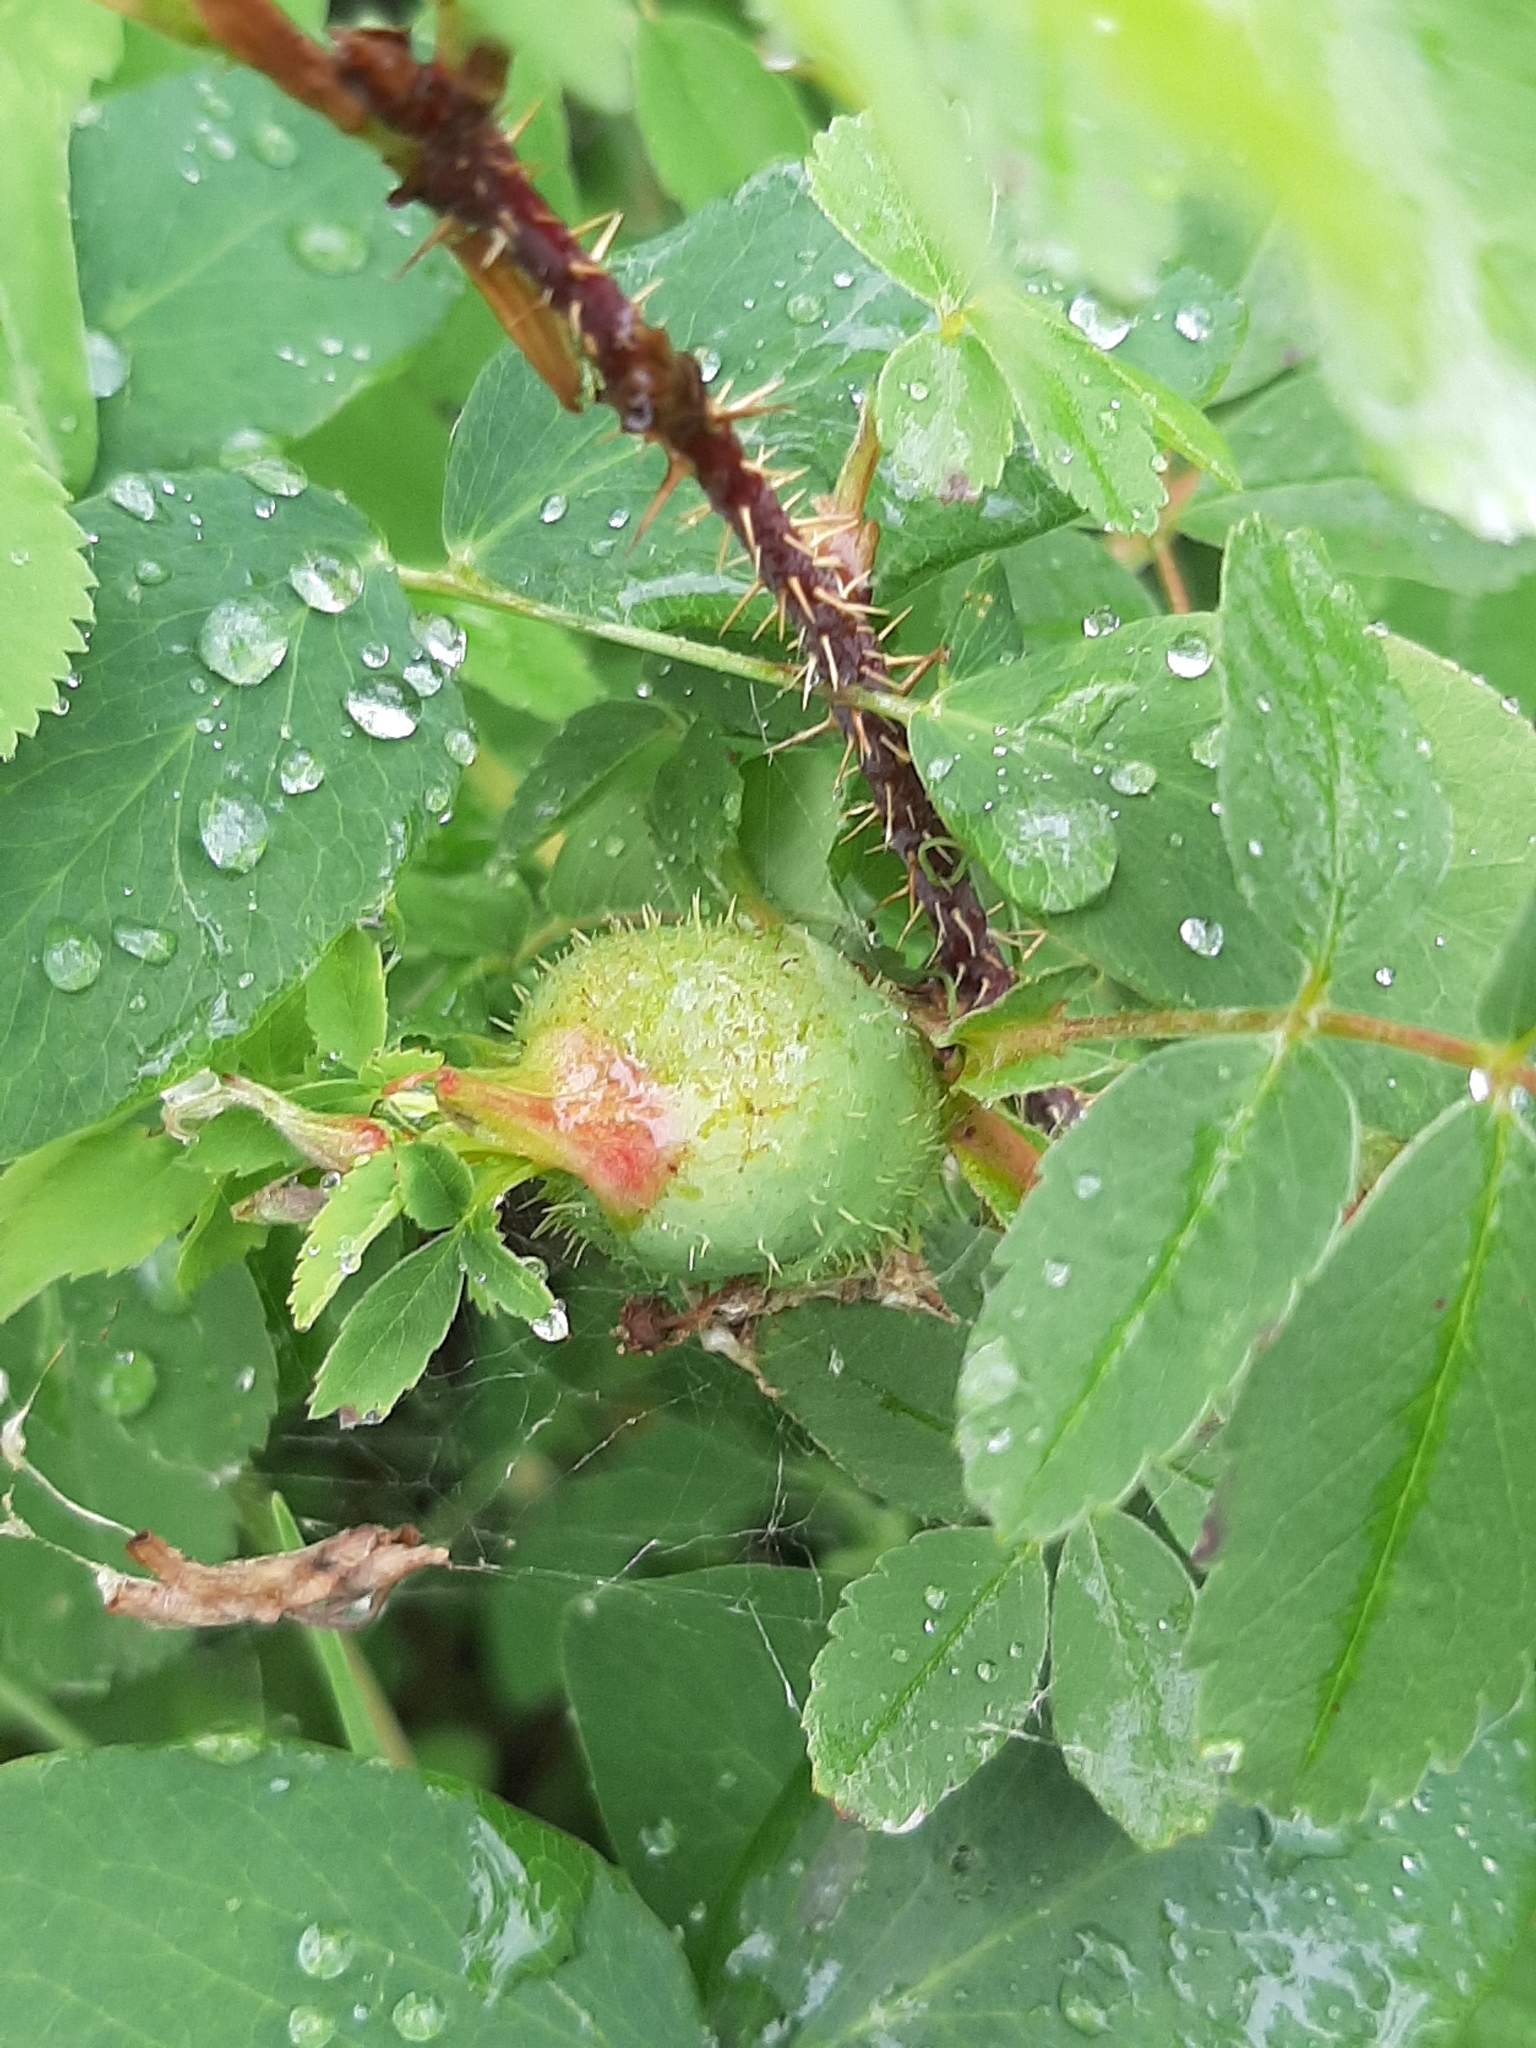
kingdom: Animalia
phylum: Arthropoda
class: Insecta
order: Hymenoptera
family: Cynipidae
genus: Diplolepis
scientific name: Diplolepis spinosa
